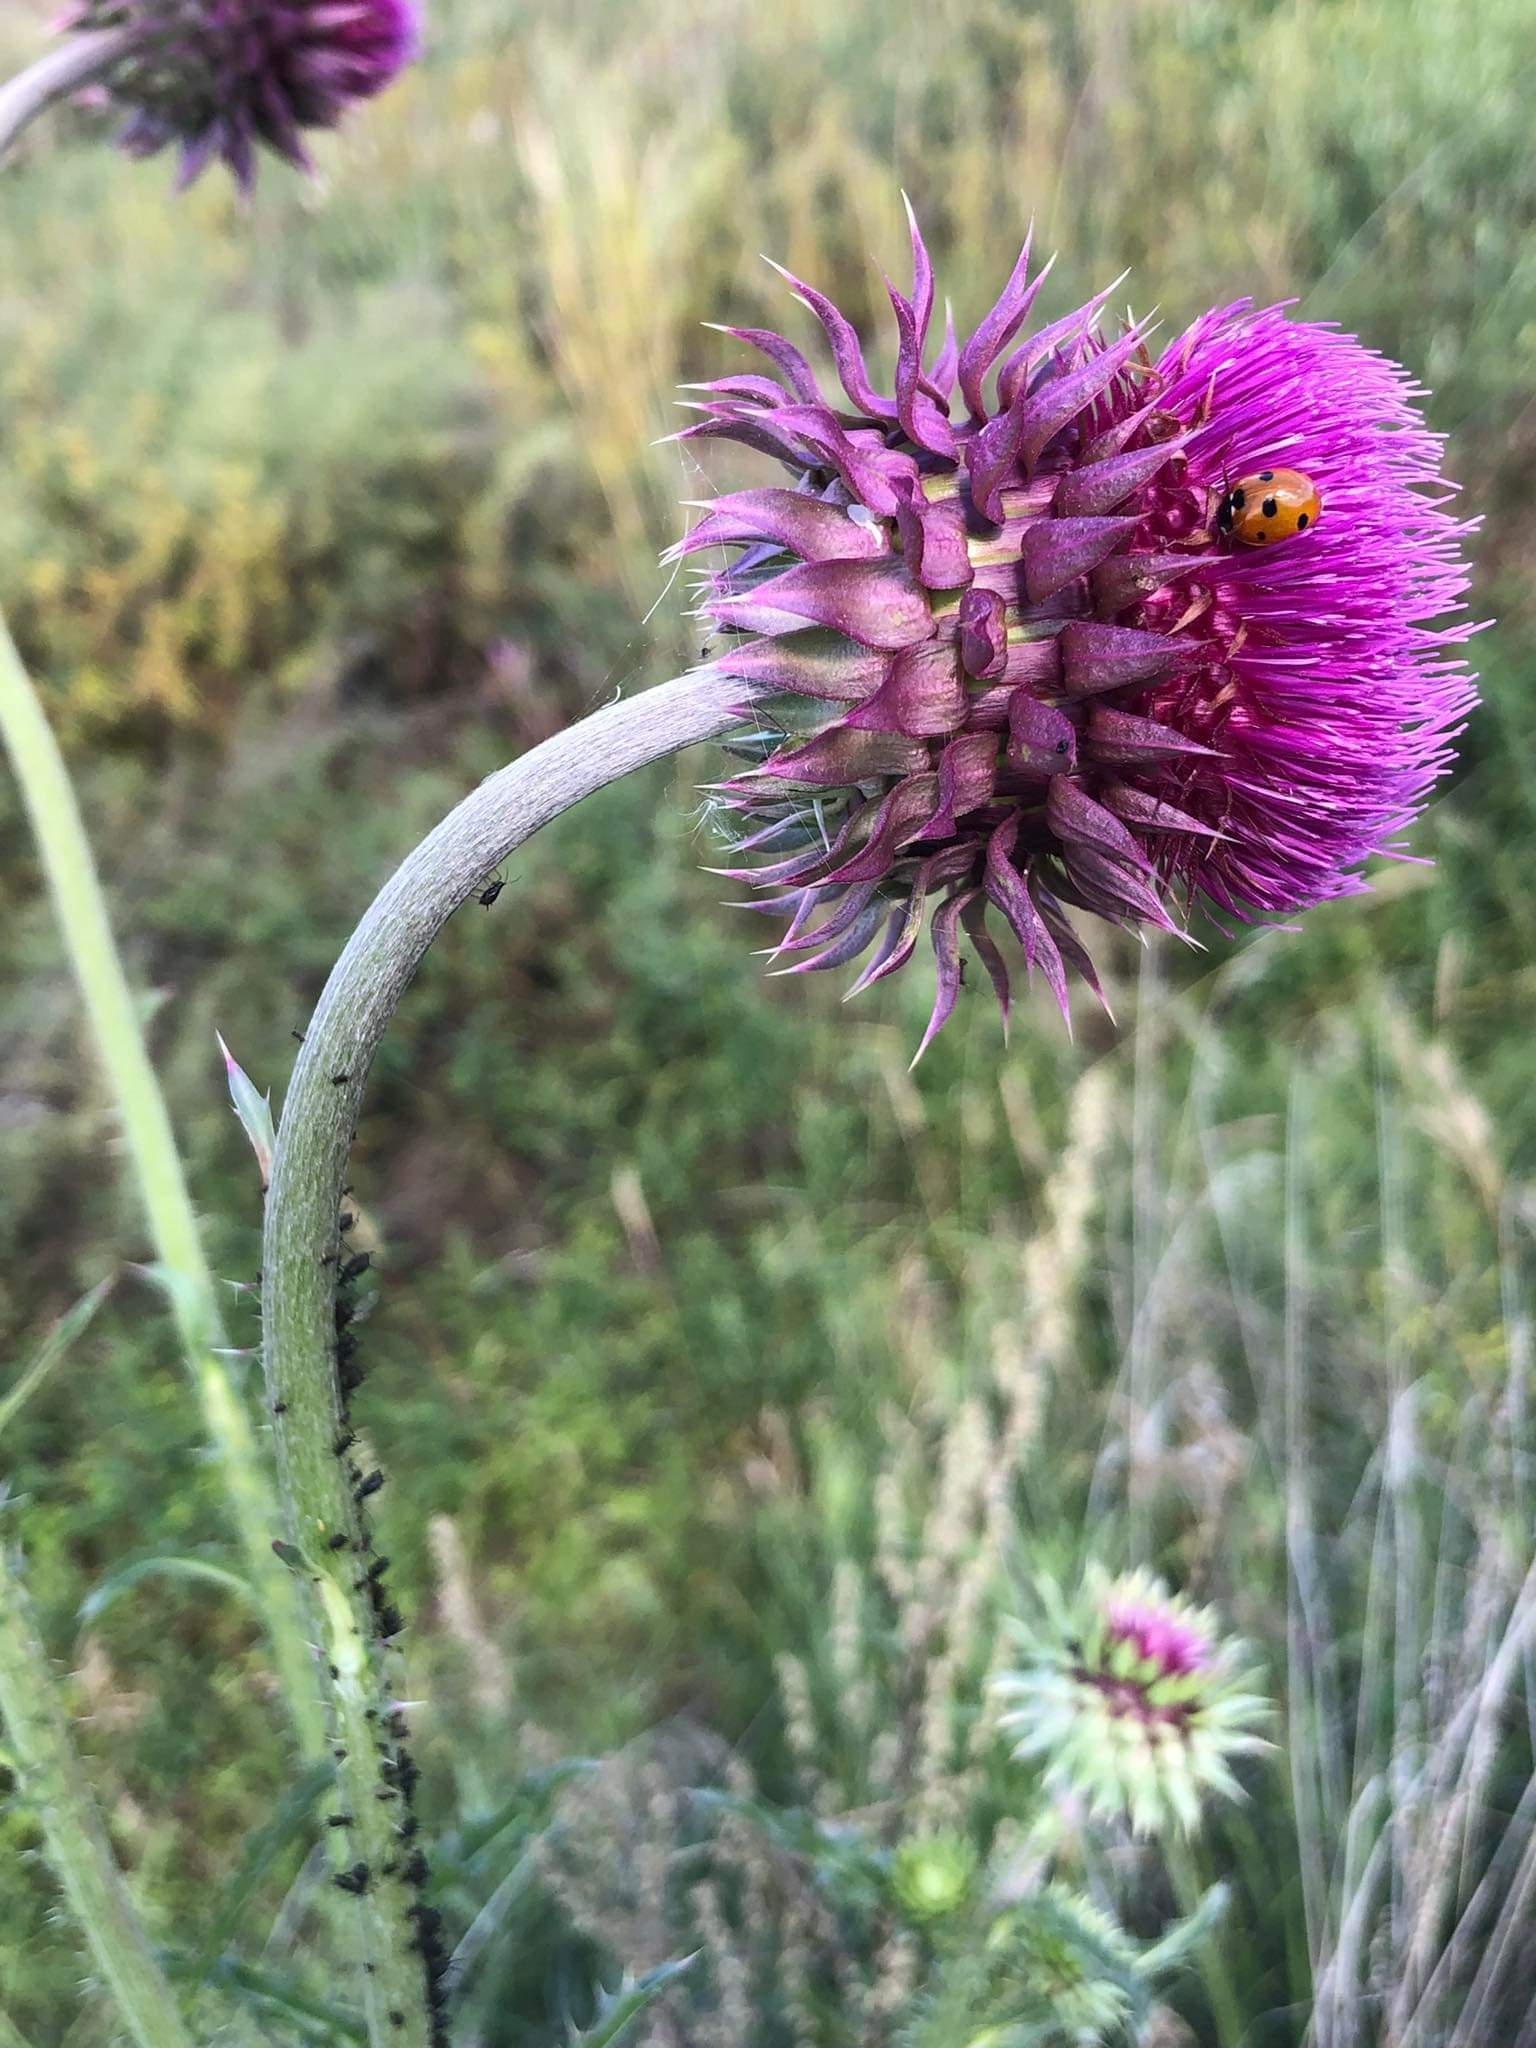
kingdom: Plantae
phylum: Tracheophyta
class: Magnoliopsida
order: Asterales
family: Asteraceae
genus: Carduus
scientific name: Carduus nutans
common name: Musk thistle
